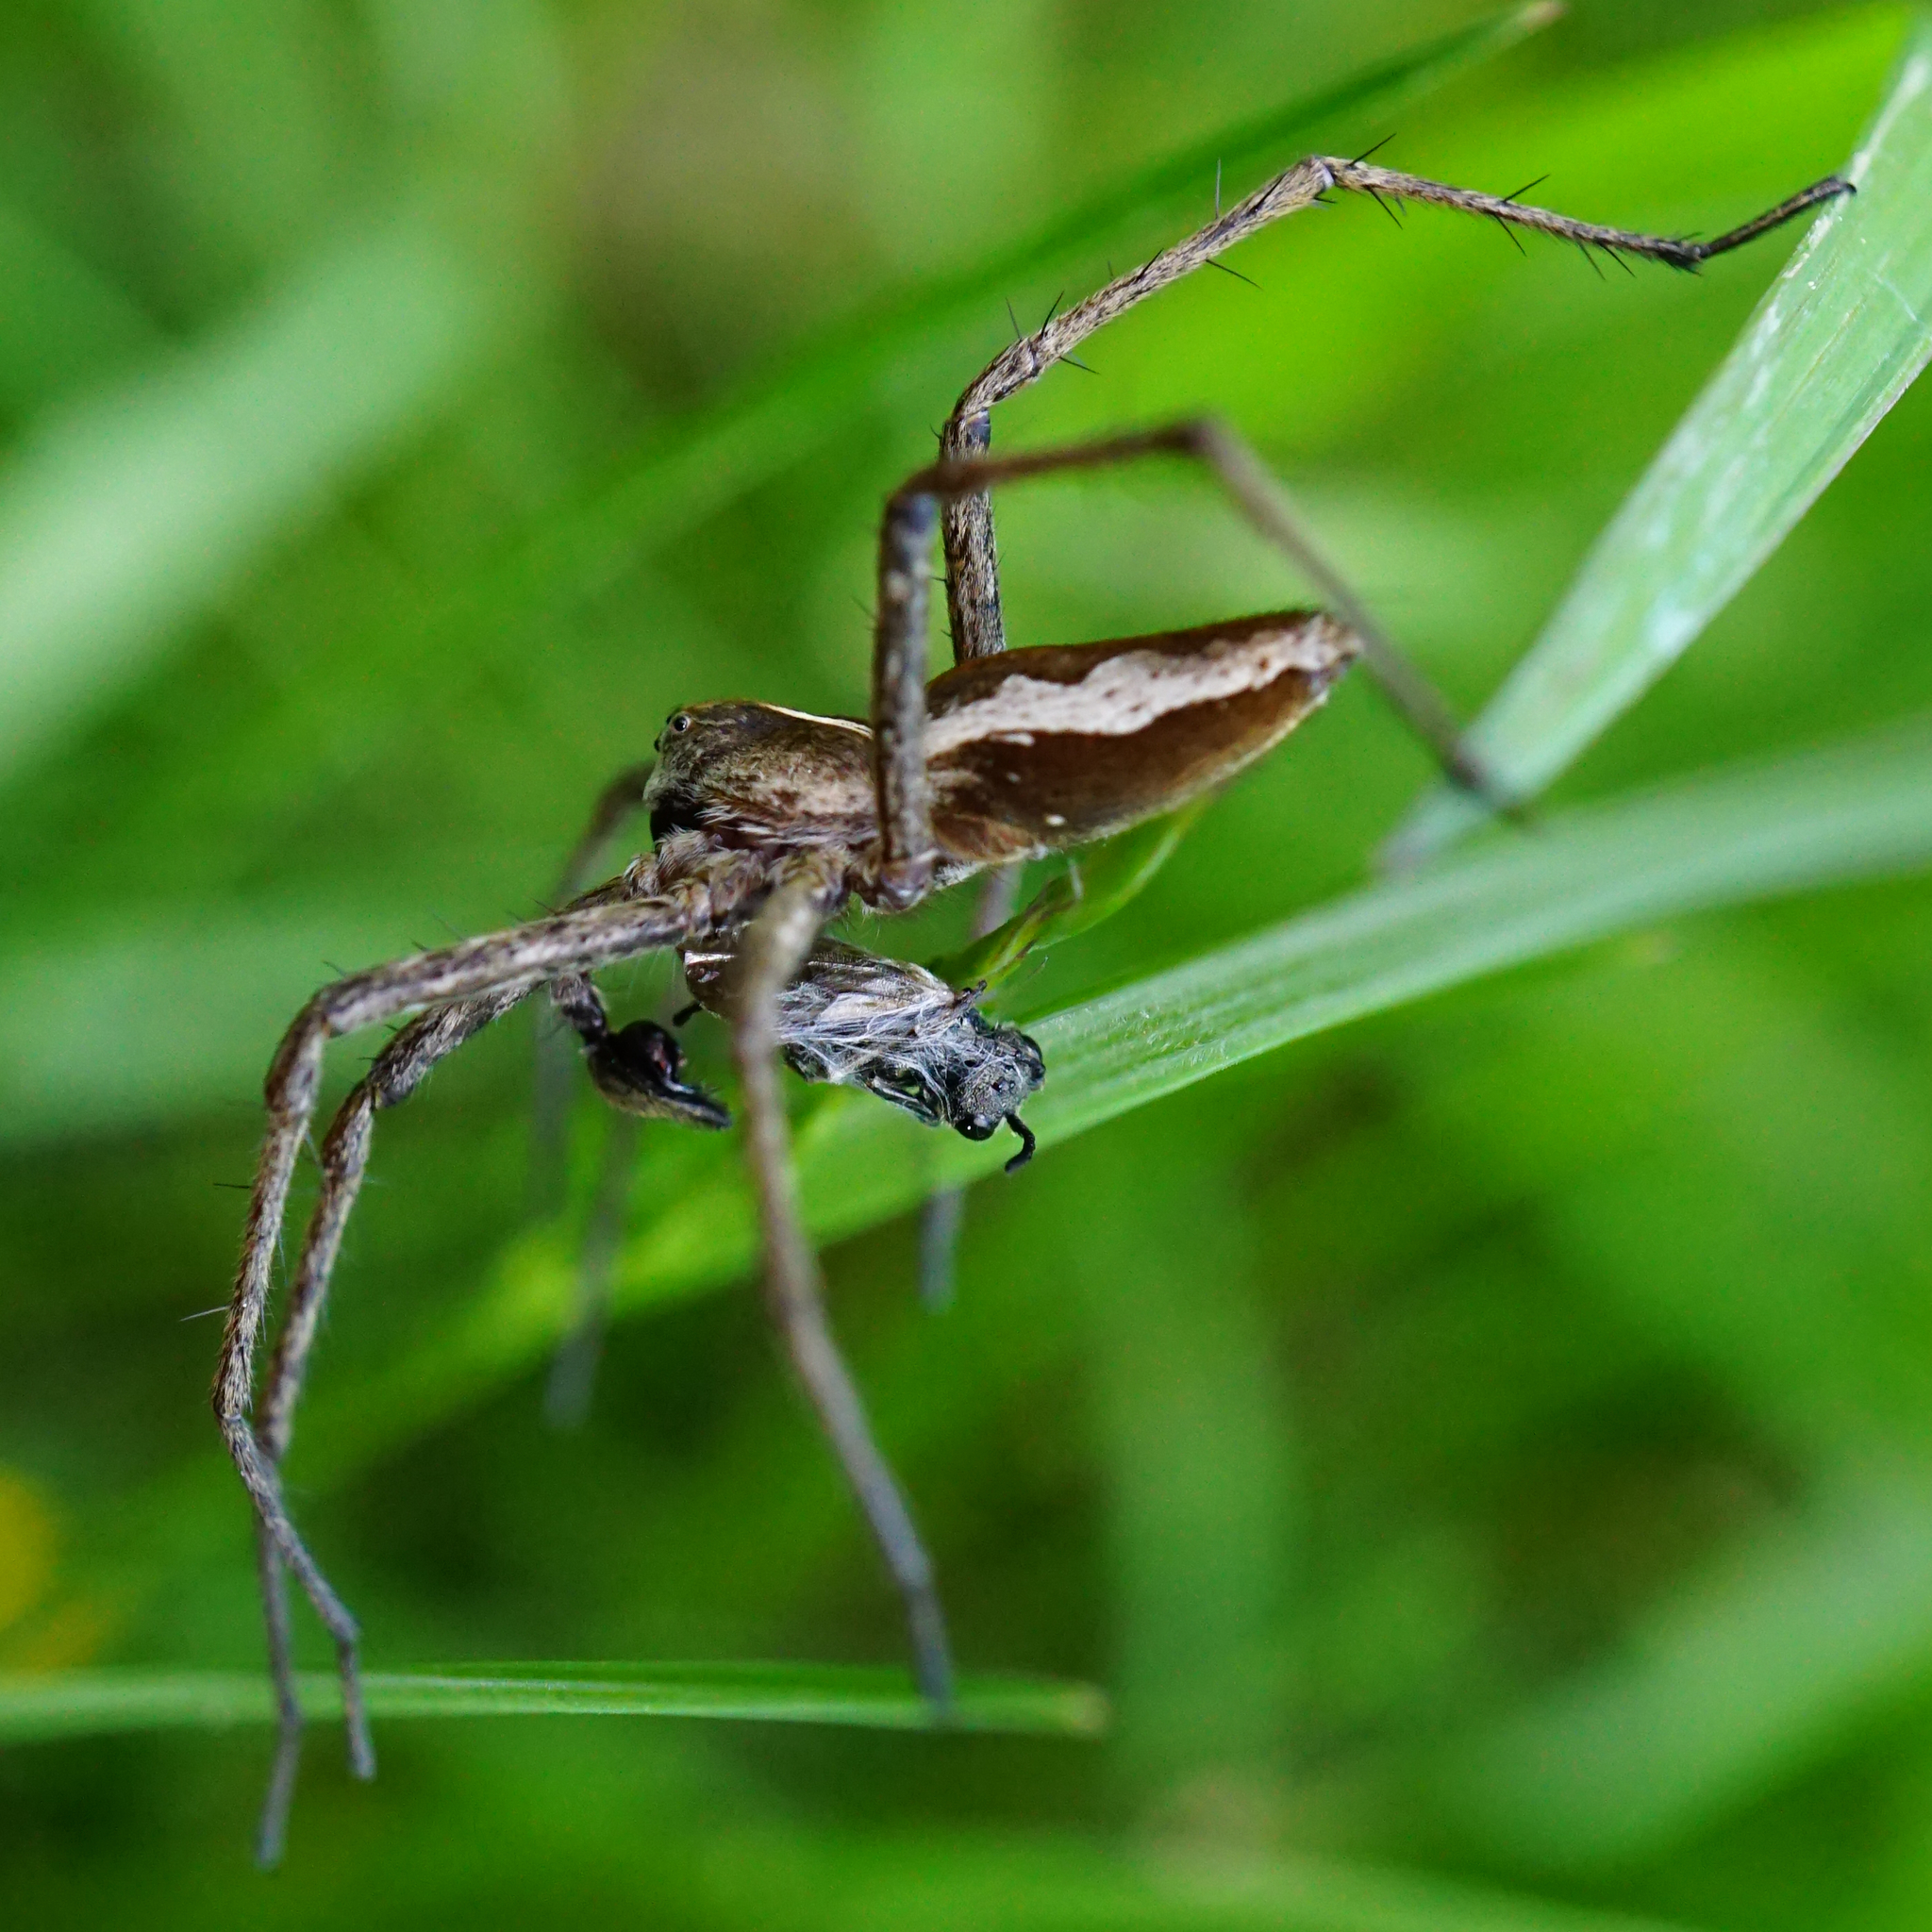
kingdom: Animalia
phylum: Arthropoda
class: Arachnida
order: Araneae
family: Pisauridae
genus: Pisaura
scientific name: Pisaura mirabilis
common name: Tent spider
